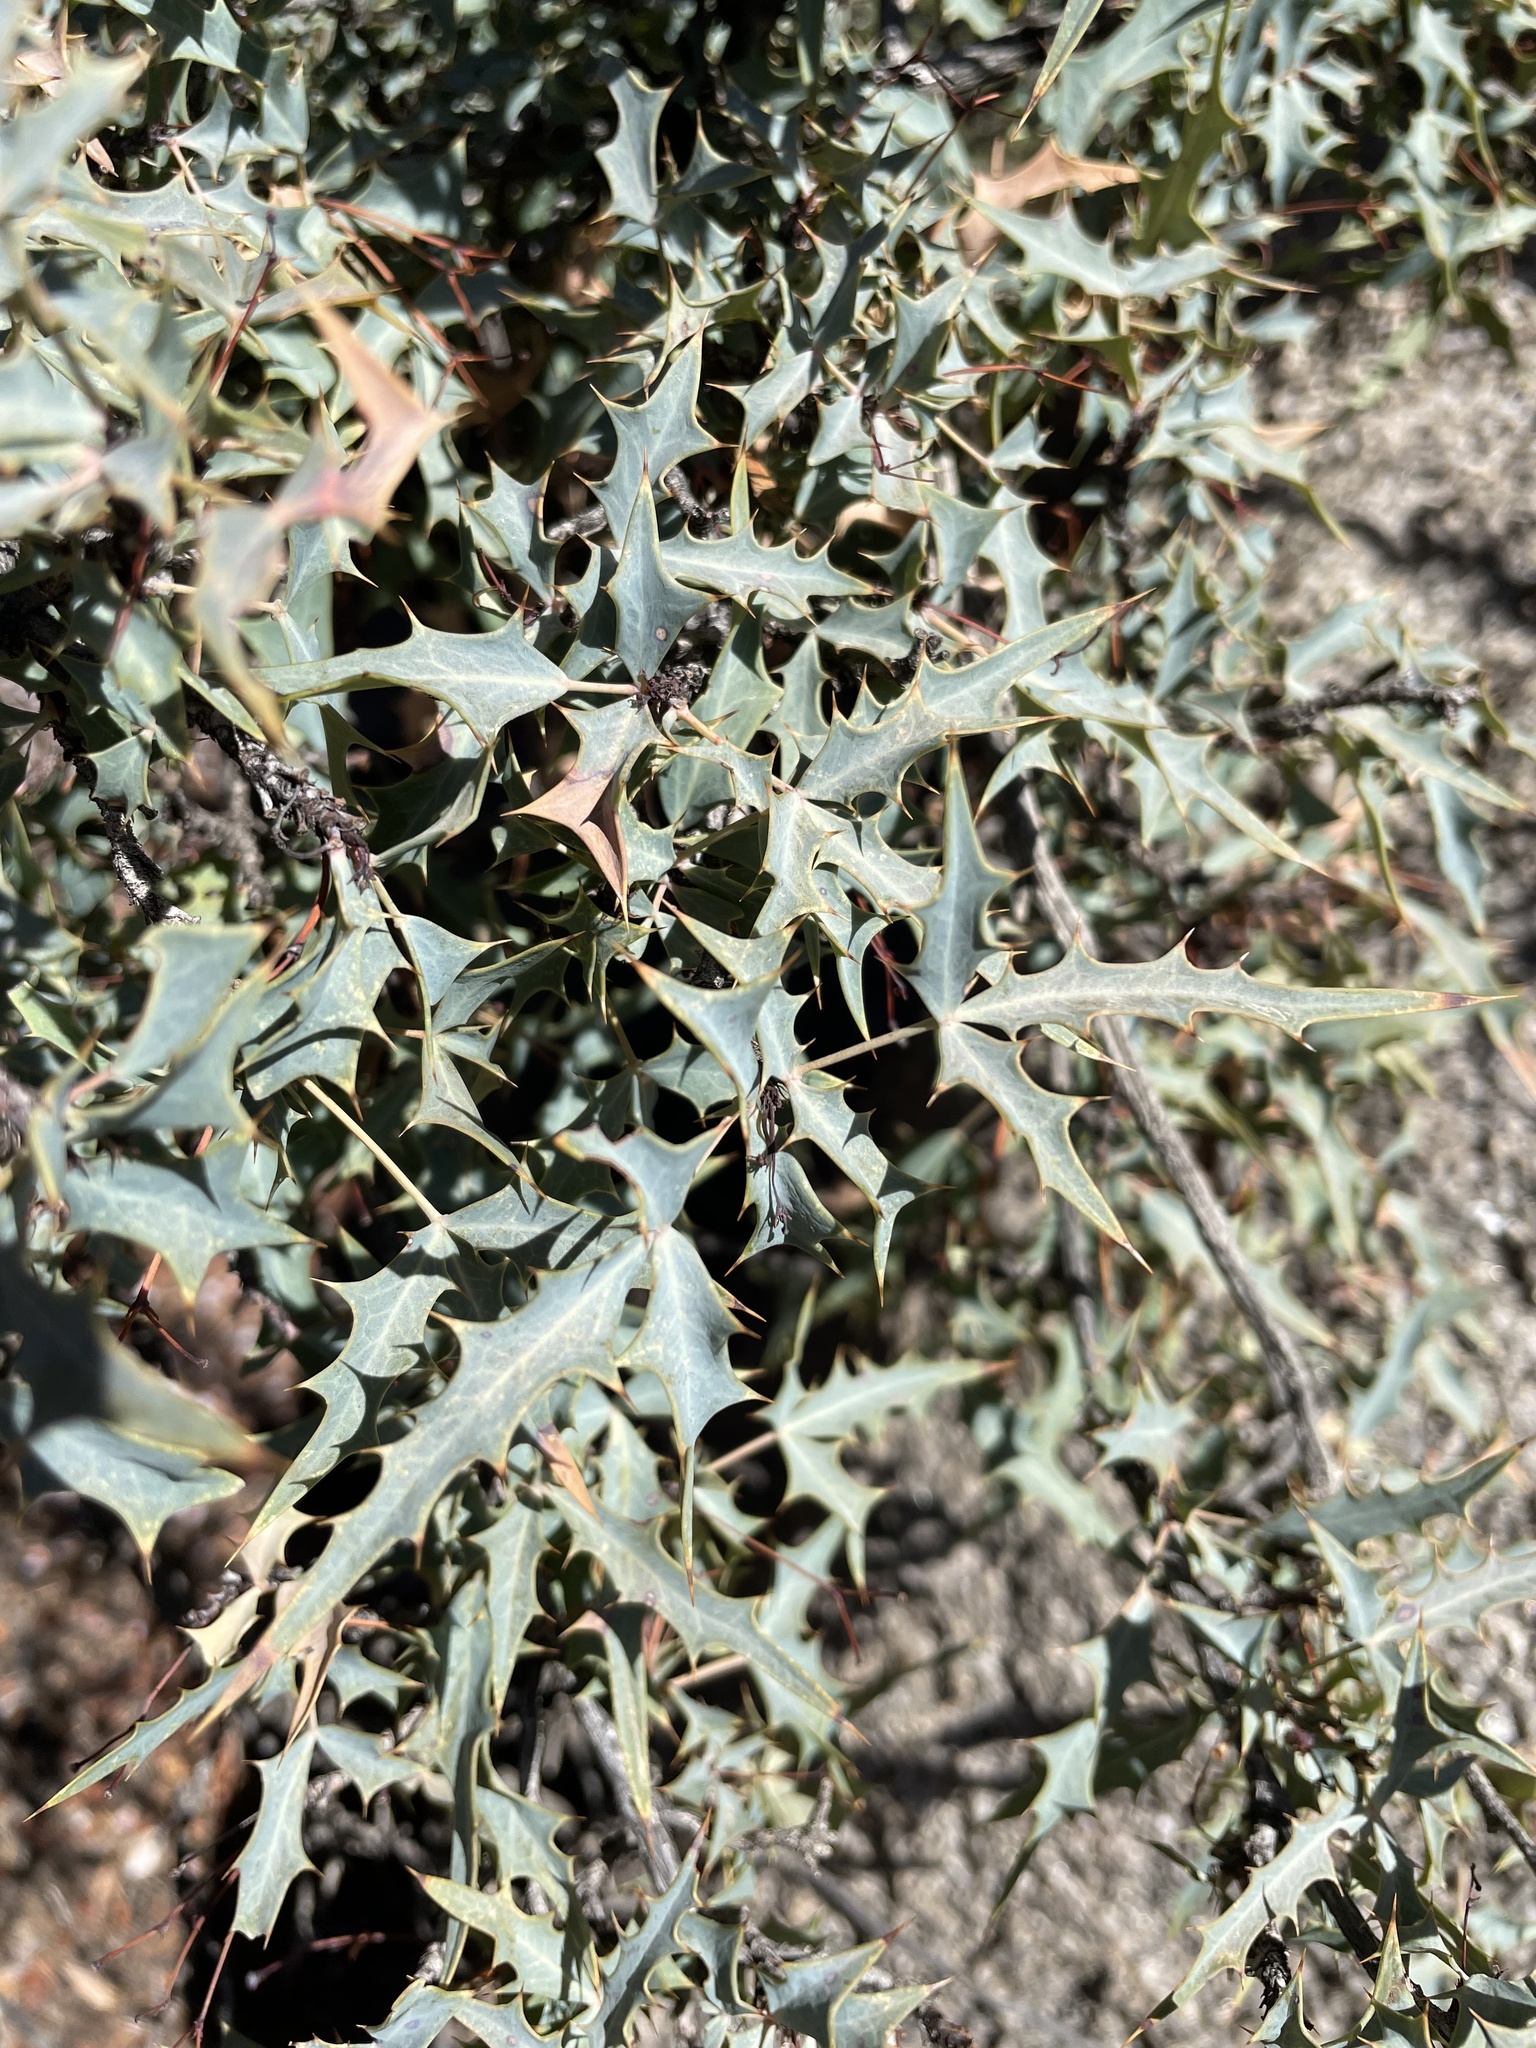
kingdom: Plantae
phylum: Tracheophyta
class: Magnoliopsida
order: Ranunculales
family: Berberidaceae
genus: Alloberberis
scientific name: Alloberberis haematocarpa
